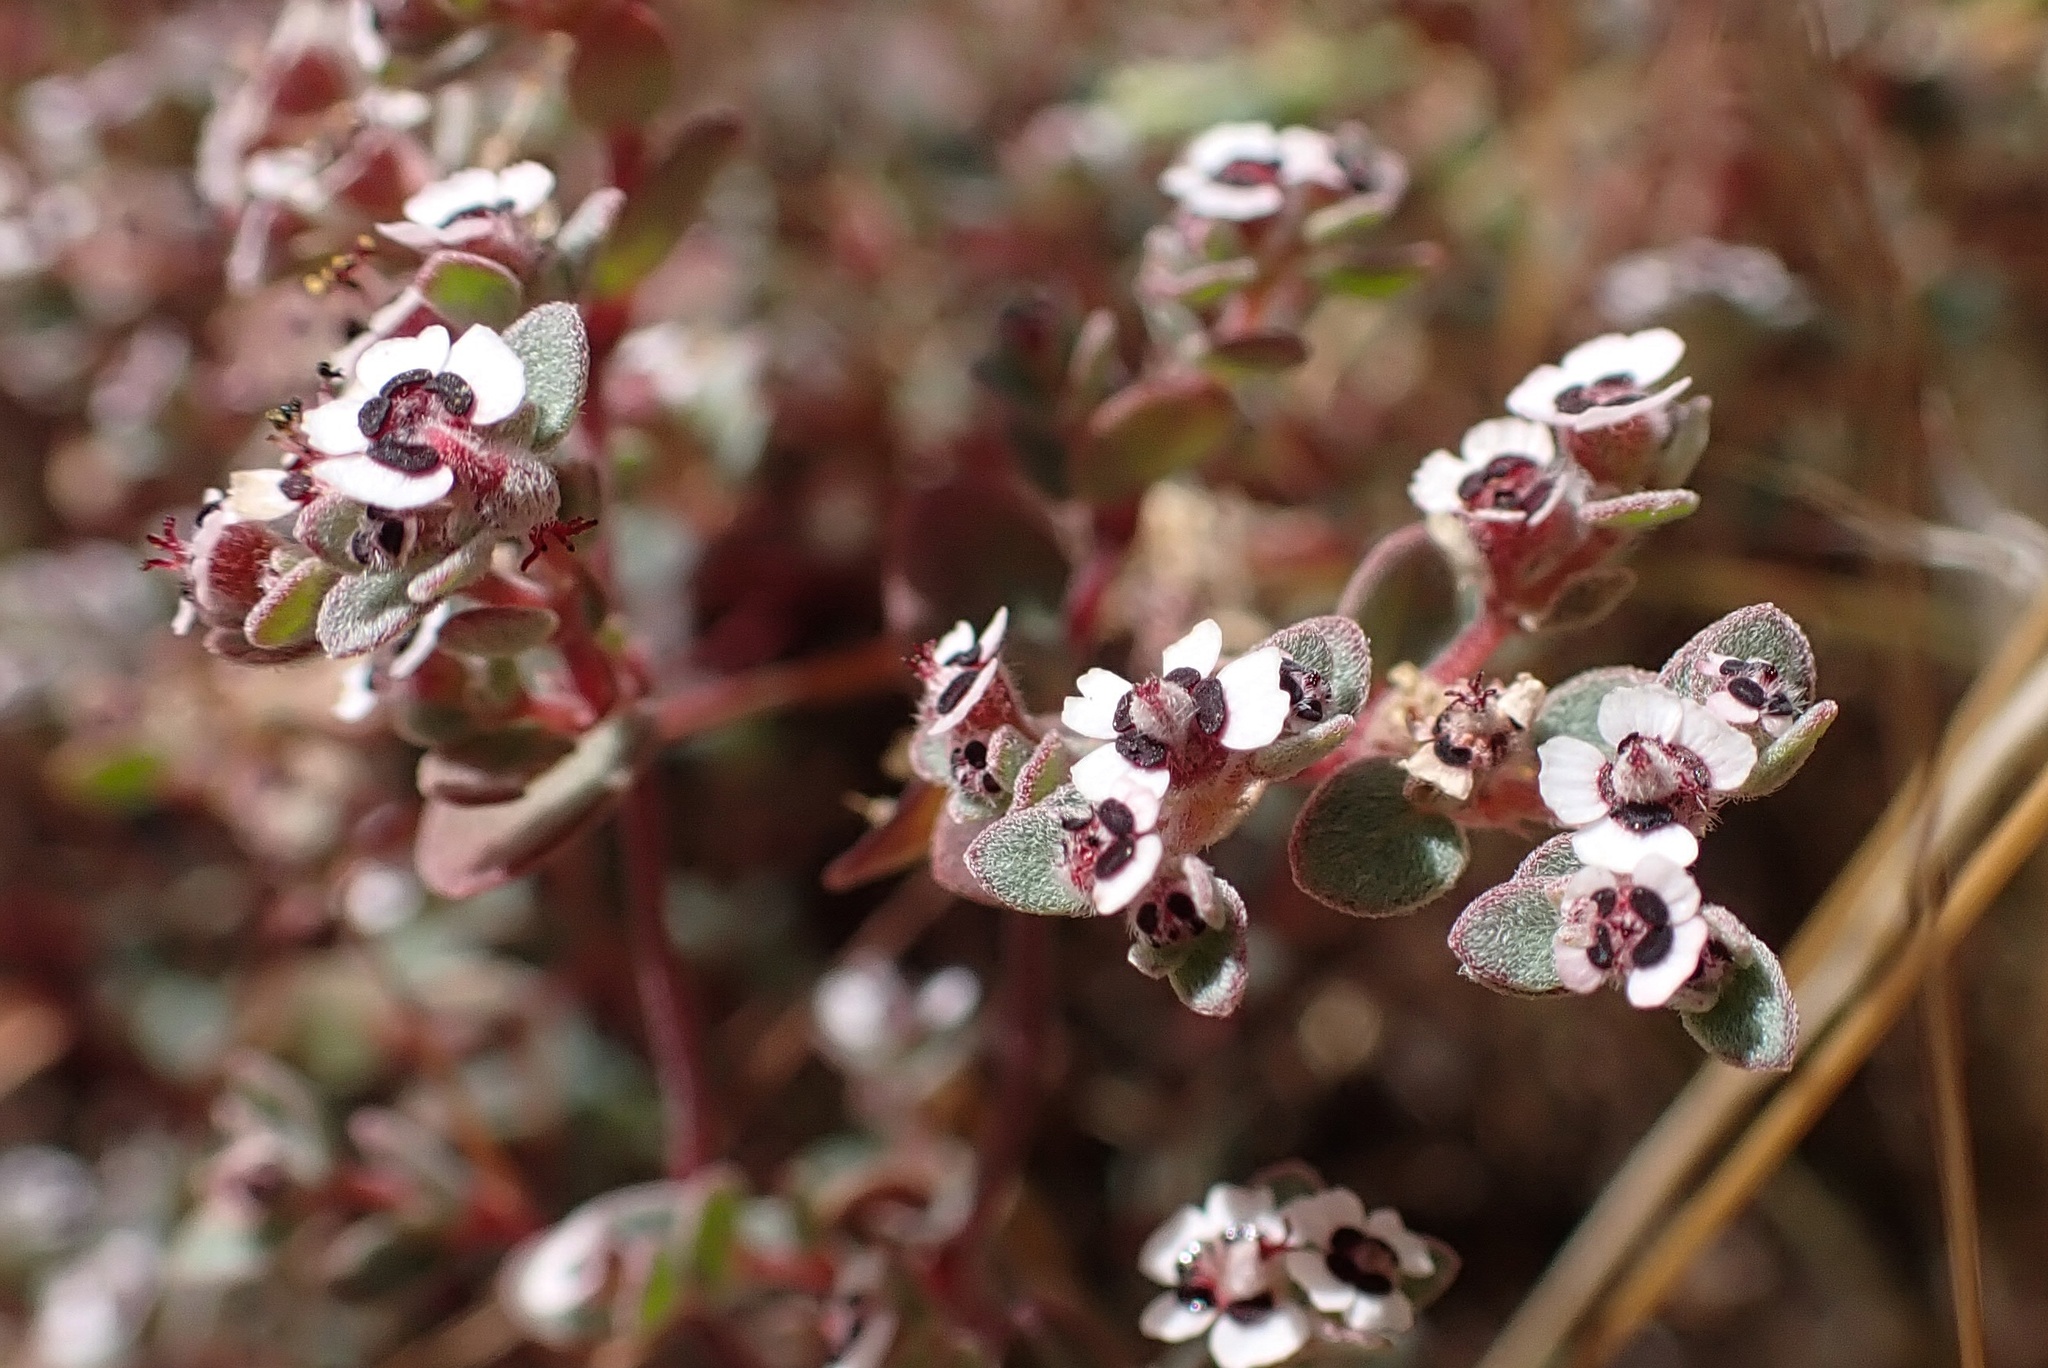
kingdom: Plantae
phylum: Tracheophyta
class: Magnoliopsida
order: Malpighiales
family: Euphorbiaceae
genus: Euphorbia
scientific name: Euphorbia melanadenia
